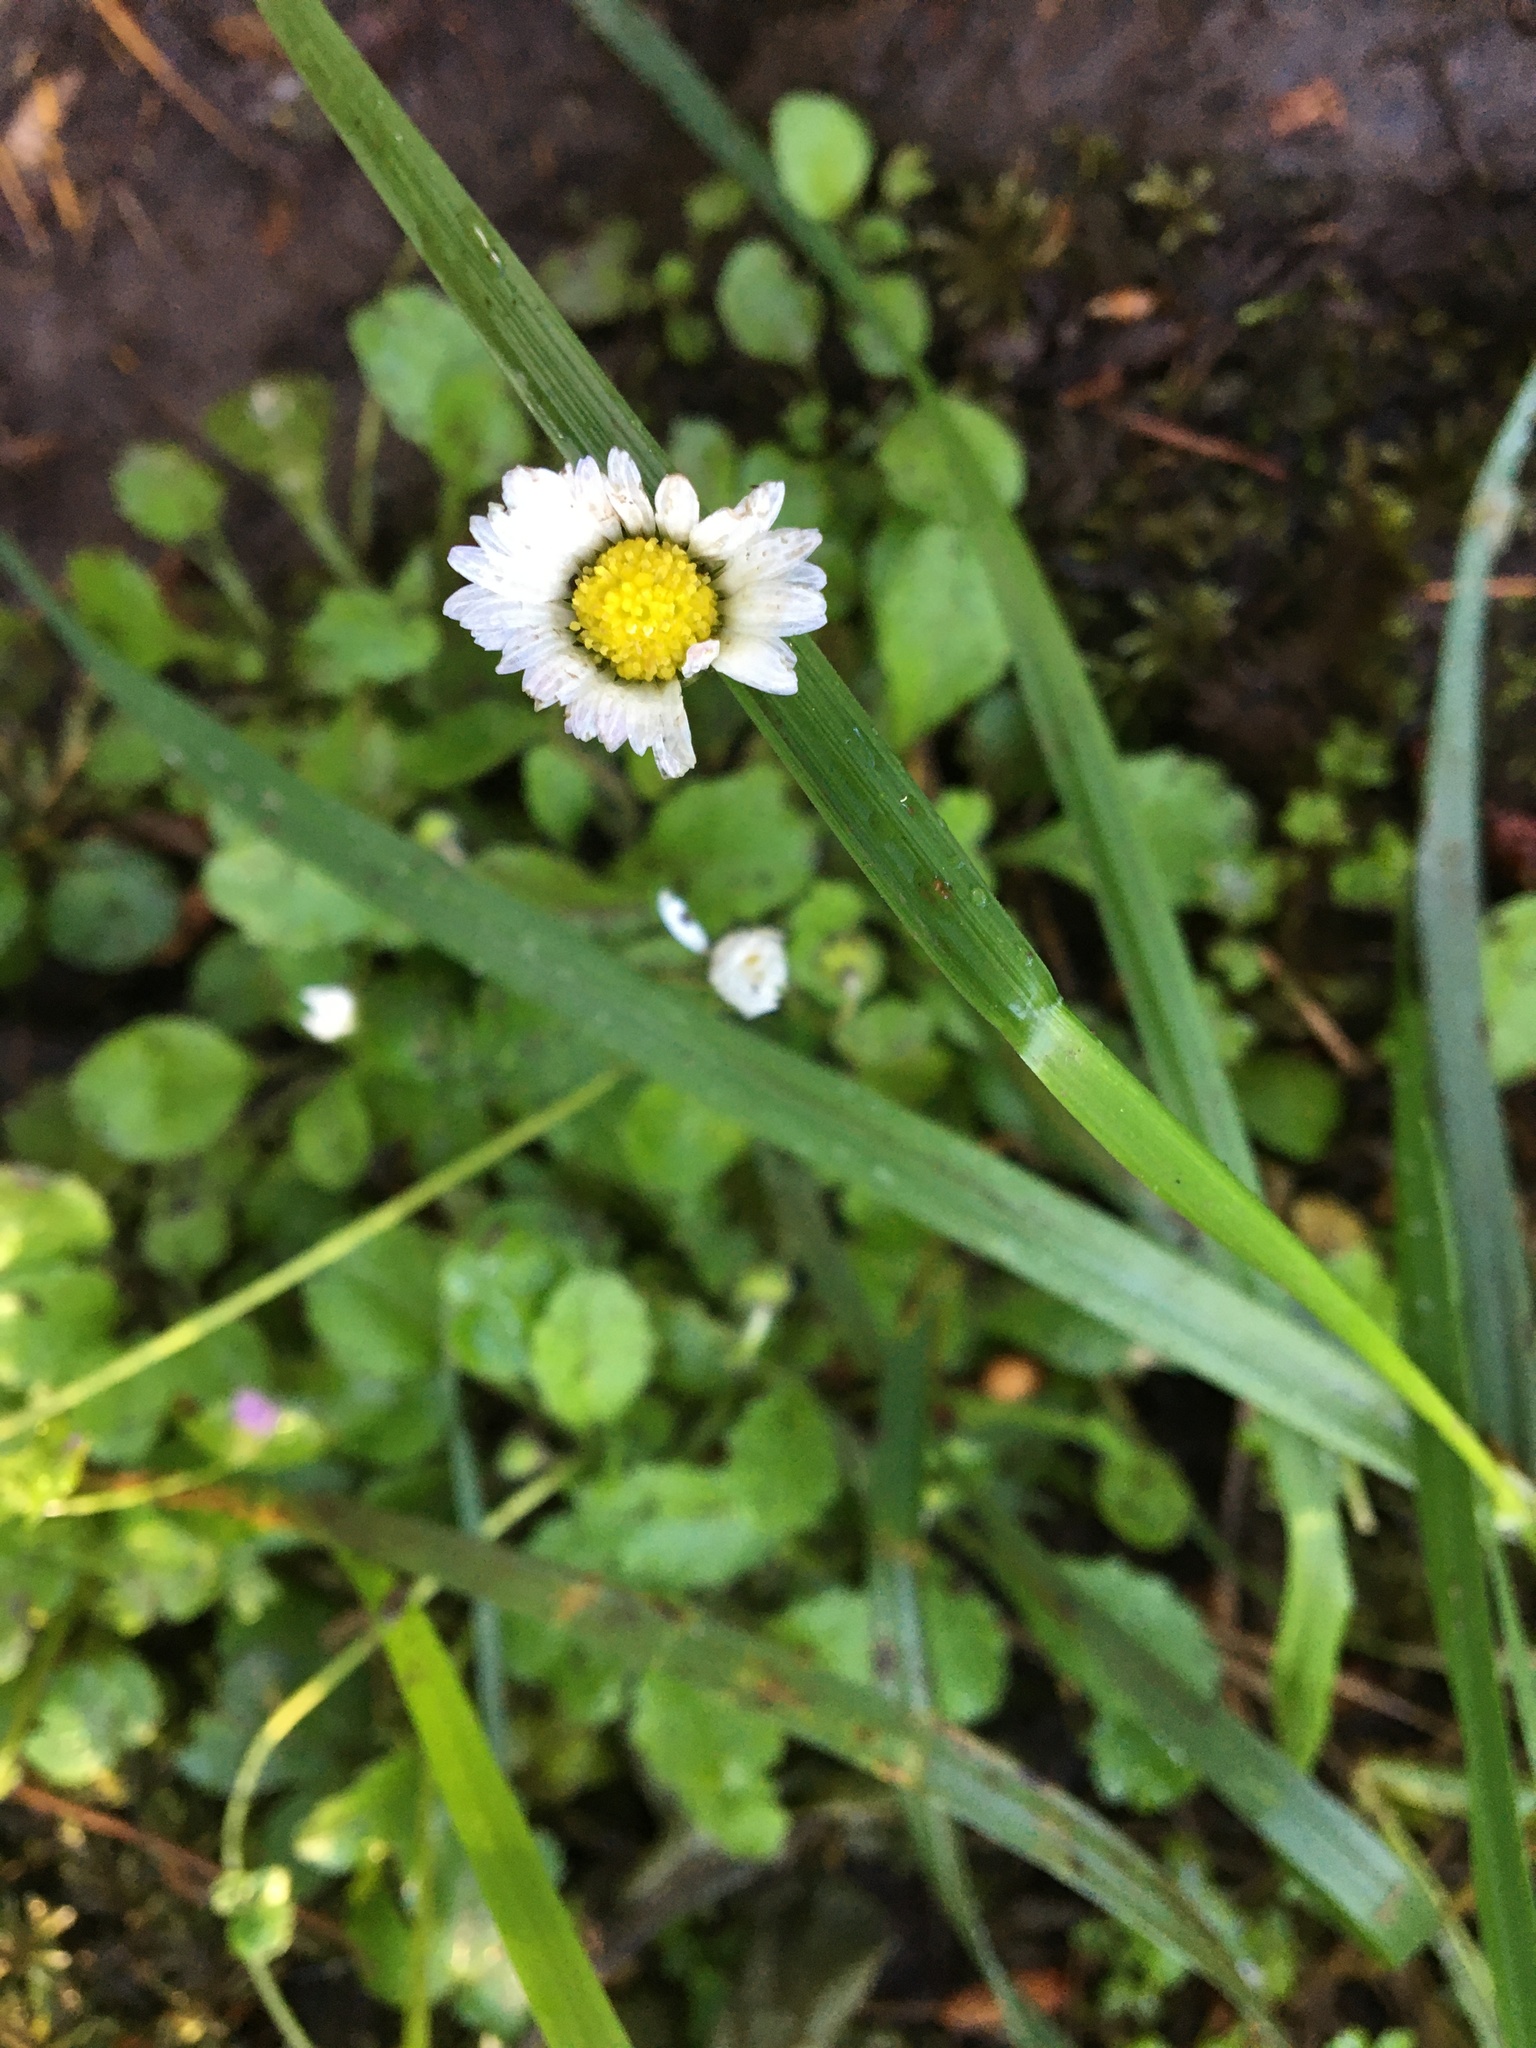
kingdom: Plantae
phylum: Tracheophyta
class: Magnoliopsida
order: Asterales
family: Asteraceae
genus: Bellis
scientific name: Bellis perennis
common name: Lawndaisy
